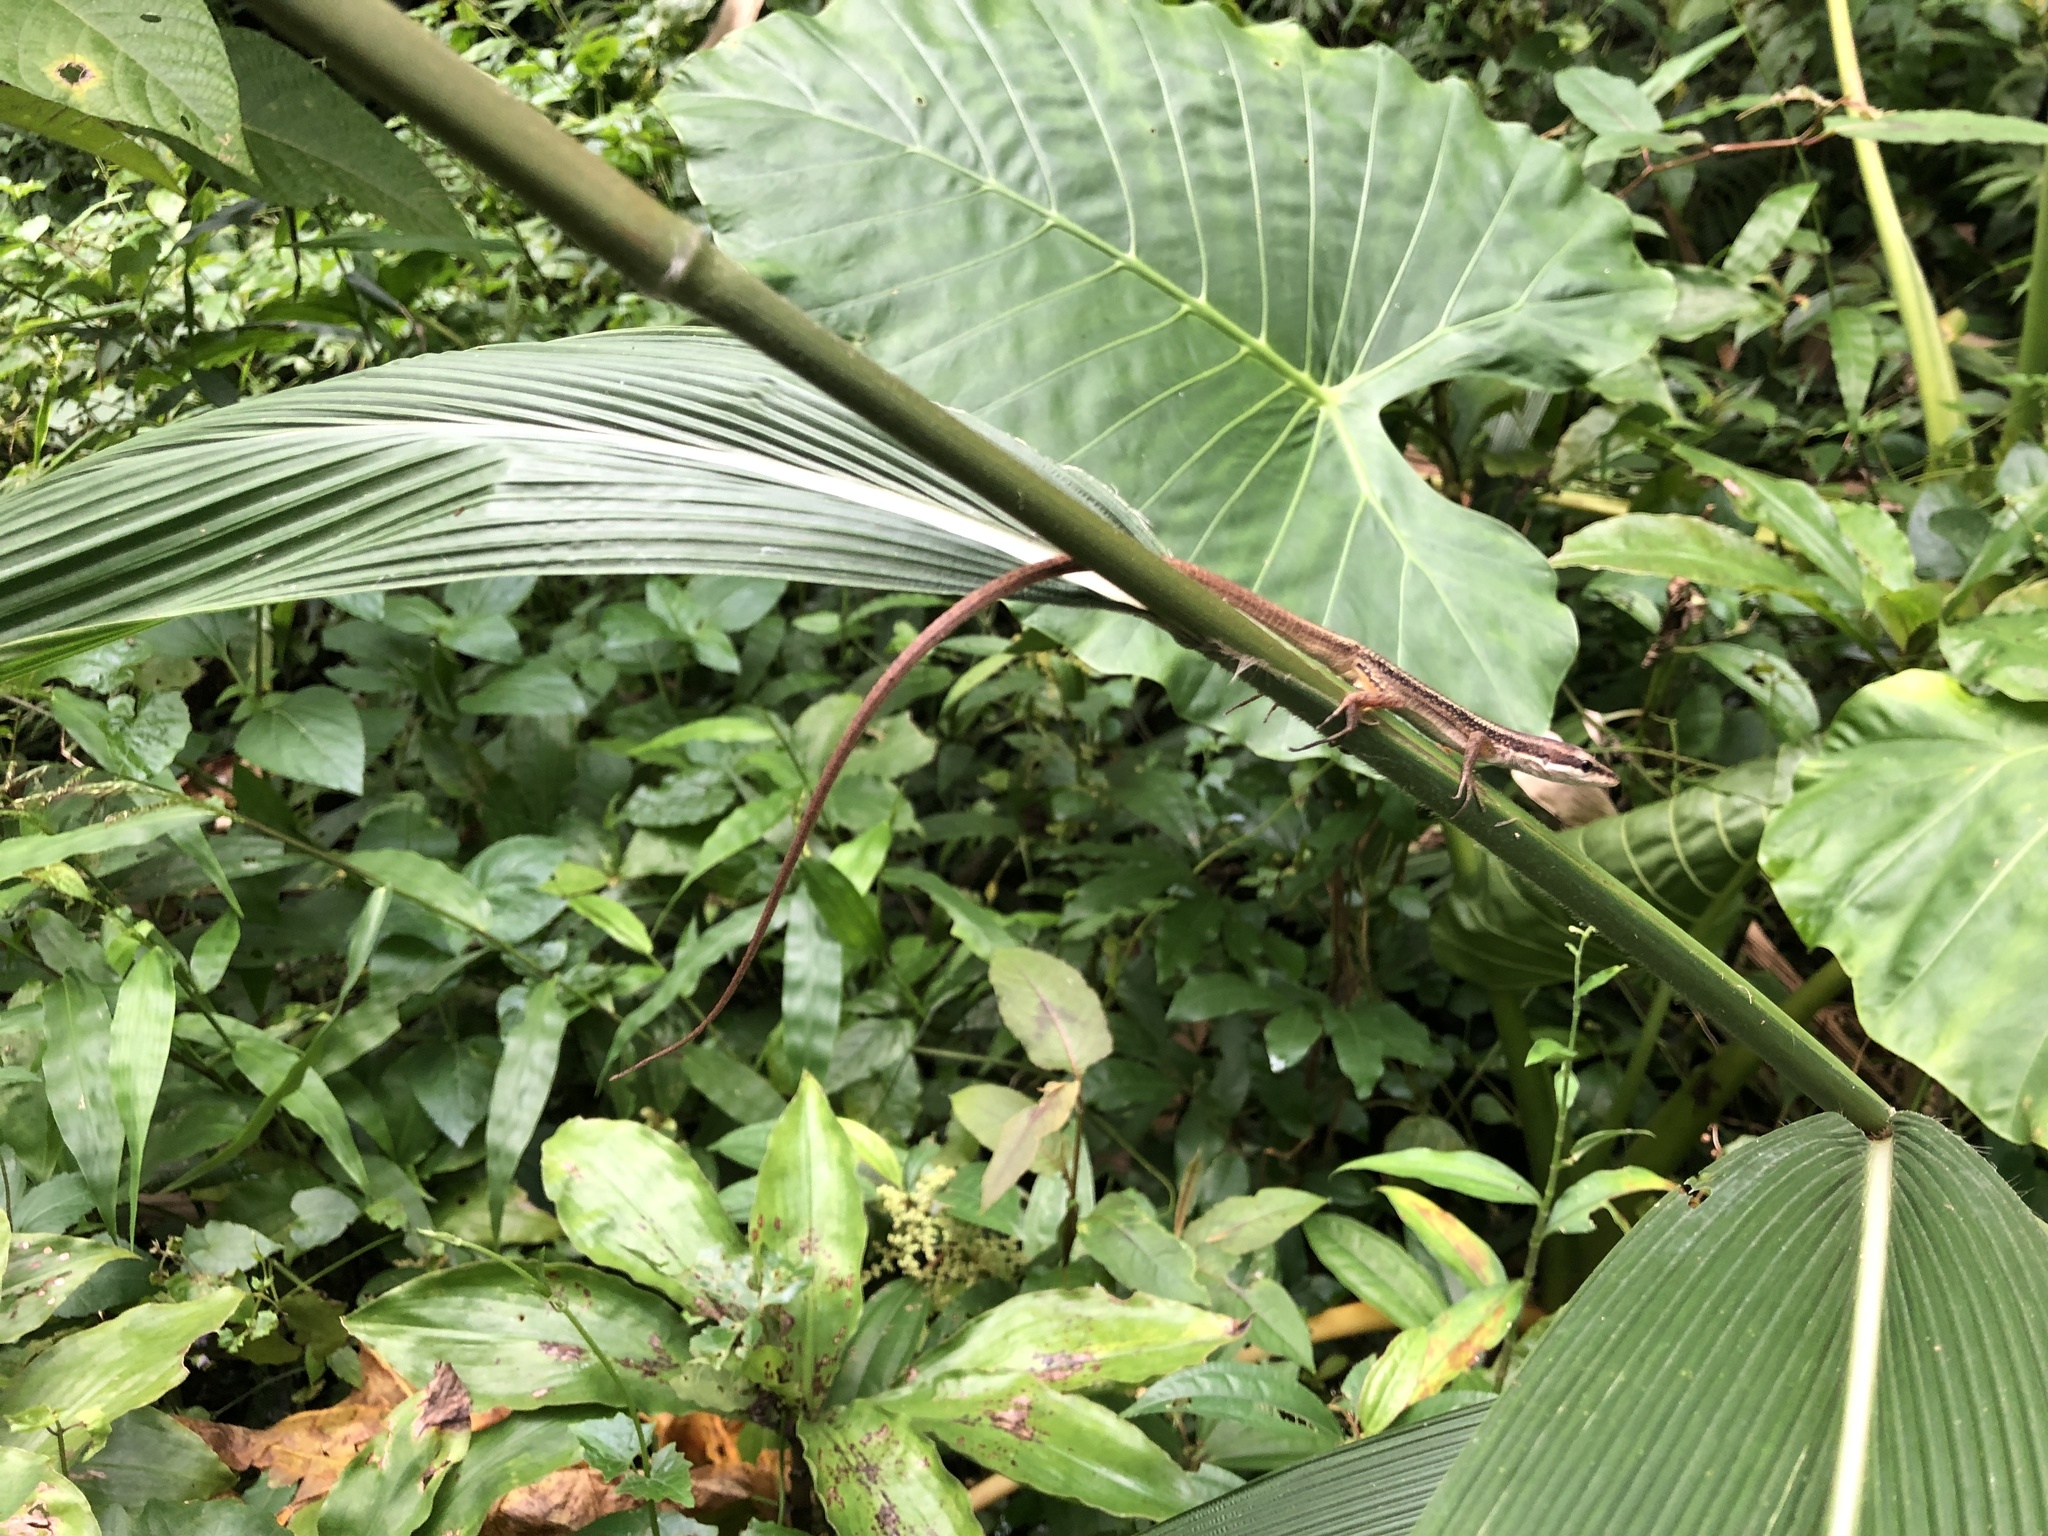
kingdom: Animalia
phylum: Chordata
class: Squamata
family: Lacertidae
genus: Takydromus
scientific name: Takydromus formosanus
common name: Formosa grass lizard
